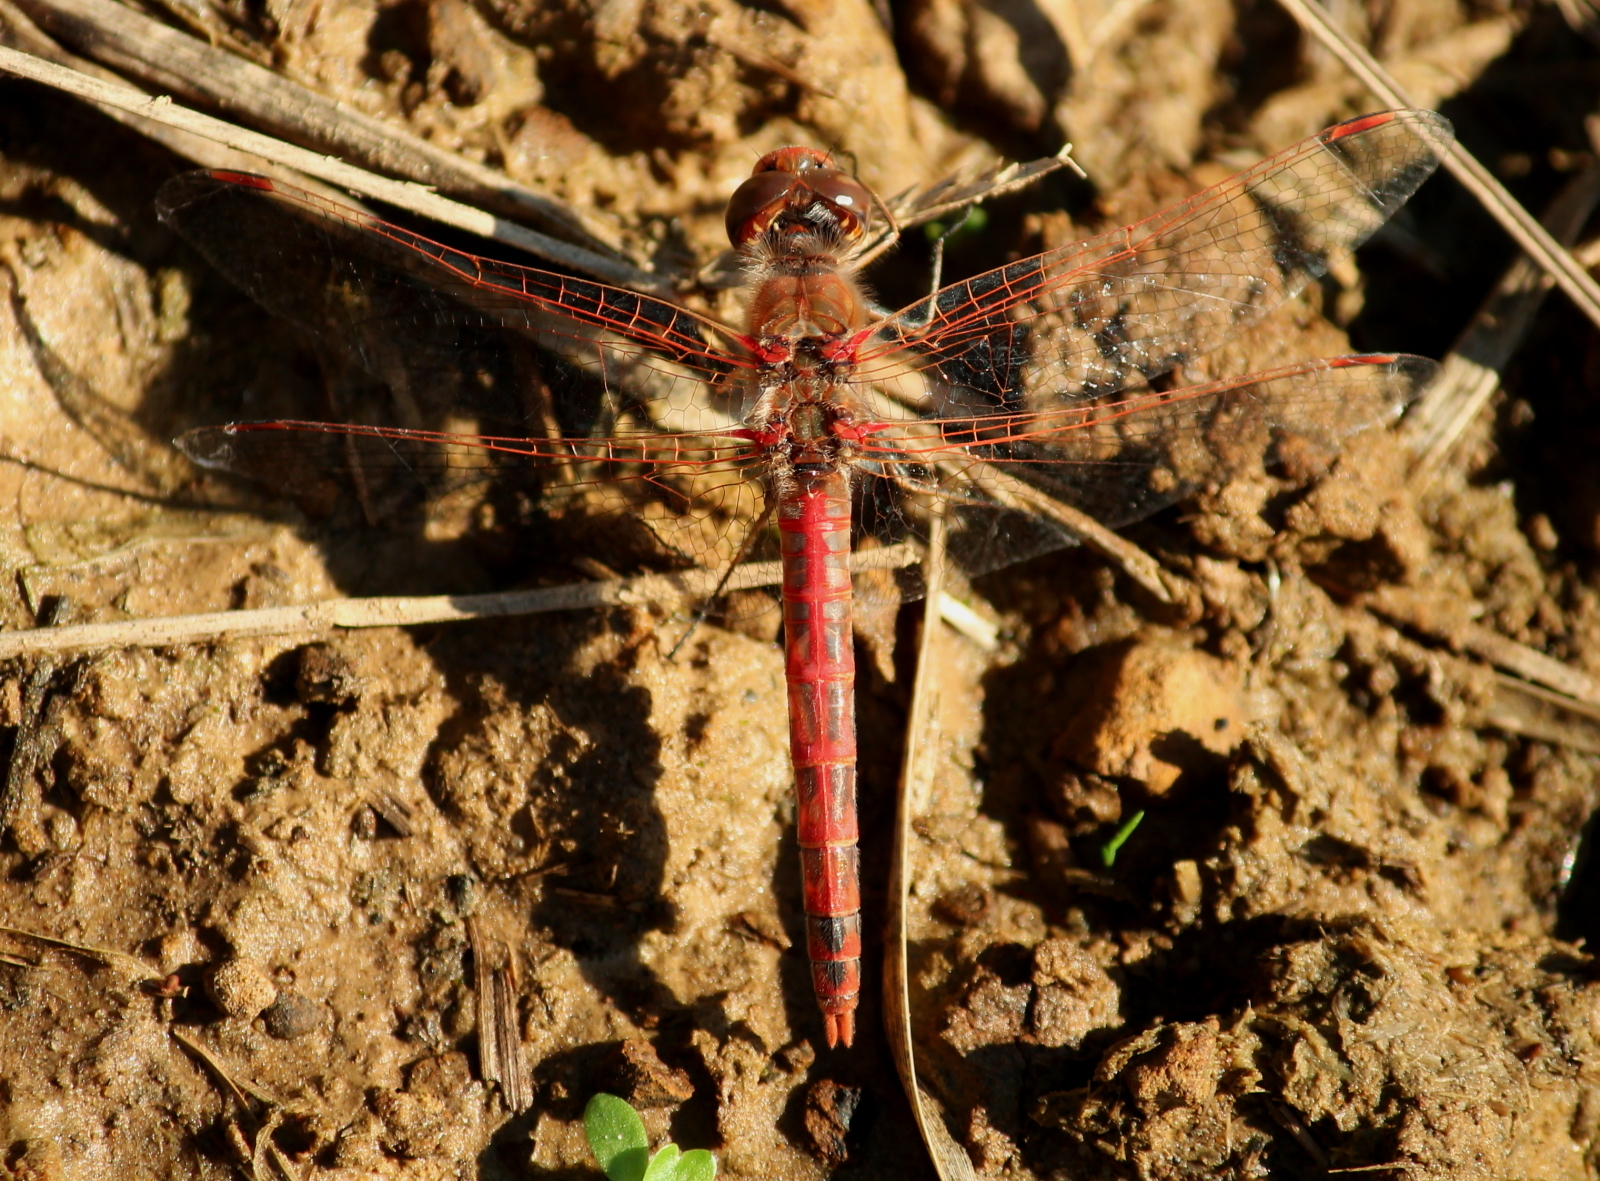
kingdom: Animalia
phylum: Arthropoda
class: Insecta
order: Odonata
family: Libellulidae
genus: Sympetrum
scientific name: Sympetrum corruptum
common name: Variegated meadowhawk
